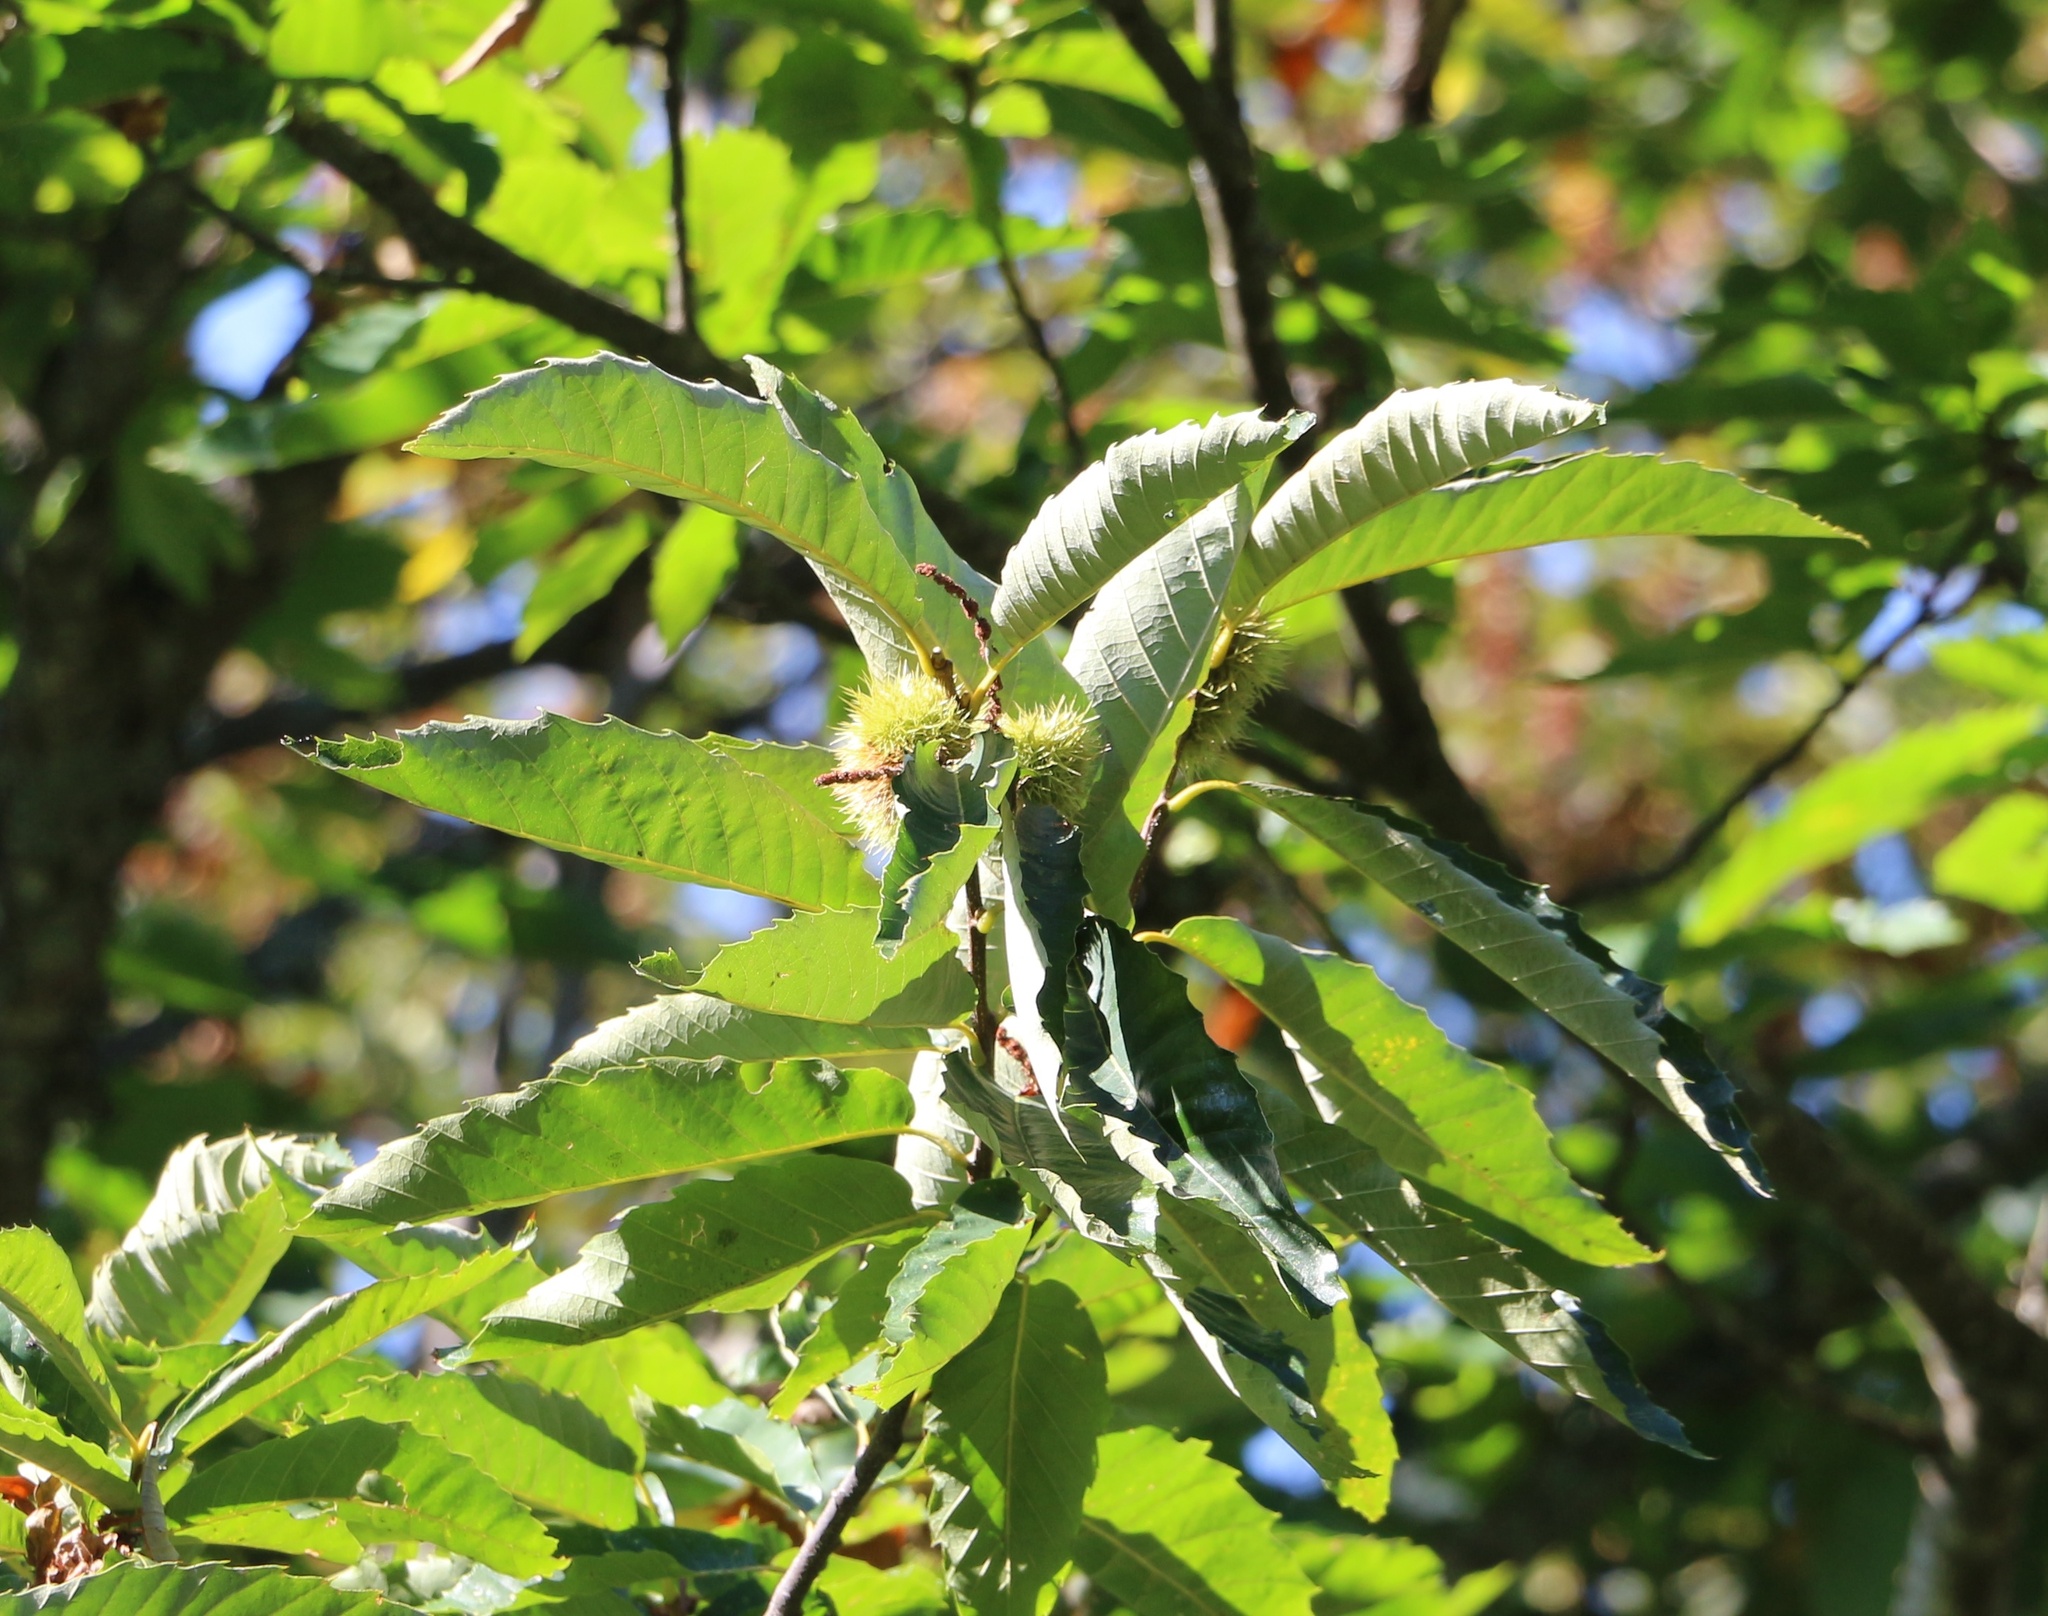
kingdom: Plantae
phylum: Tracheophyta
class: Magnoliopsida
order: Fagales
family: Fagaceae
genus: Castanea
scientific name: Castanea sativa
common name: Sweet chestnut
